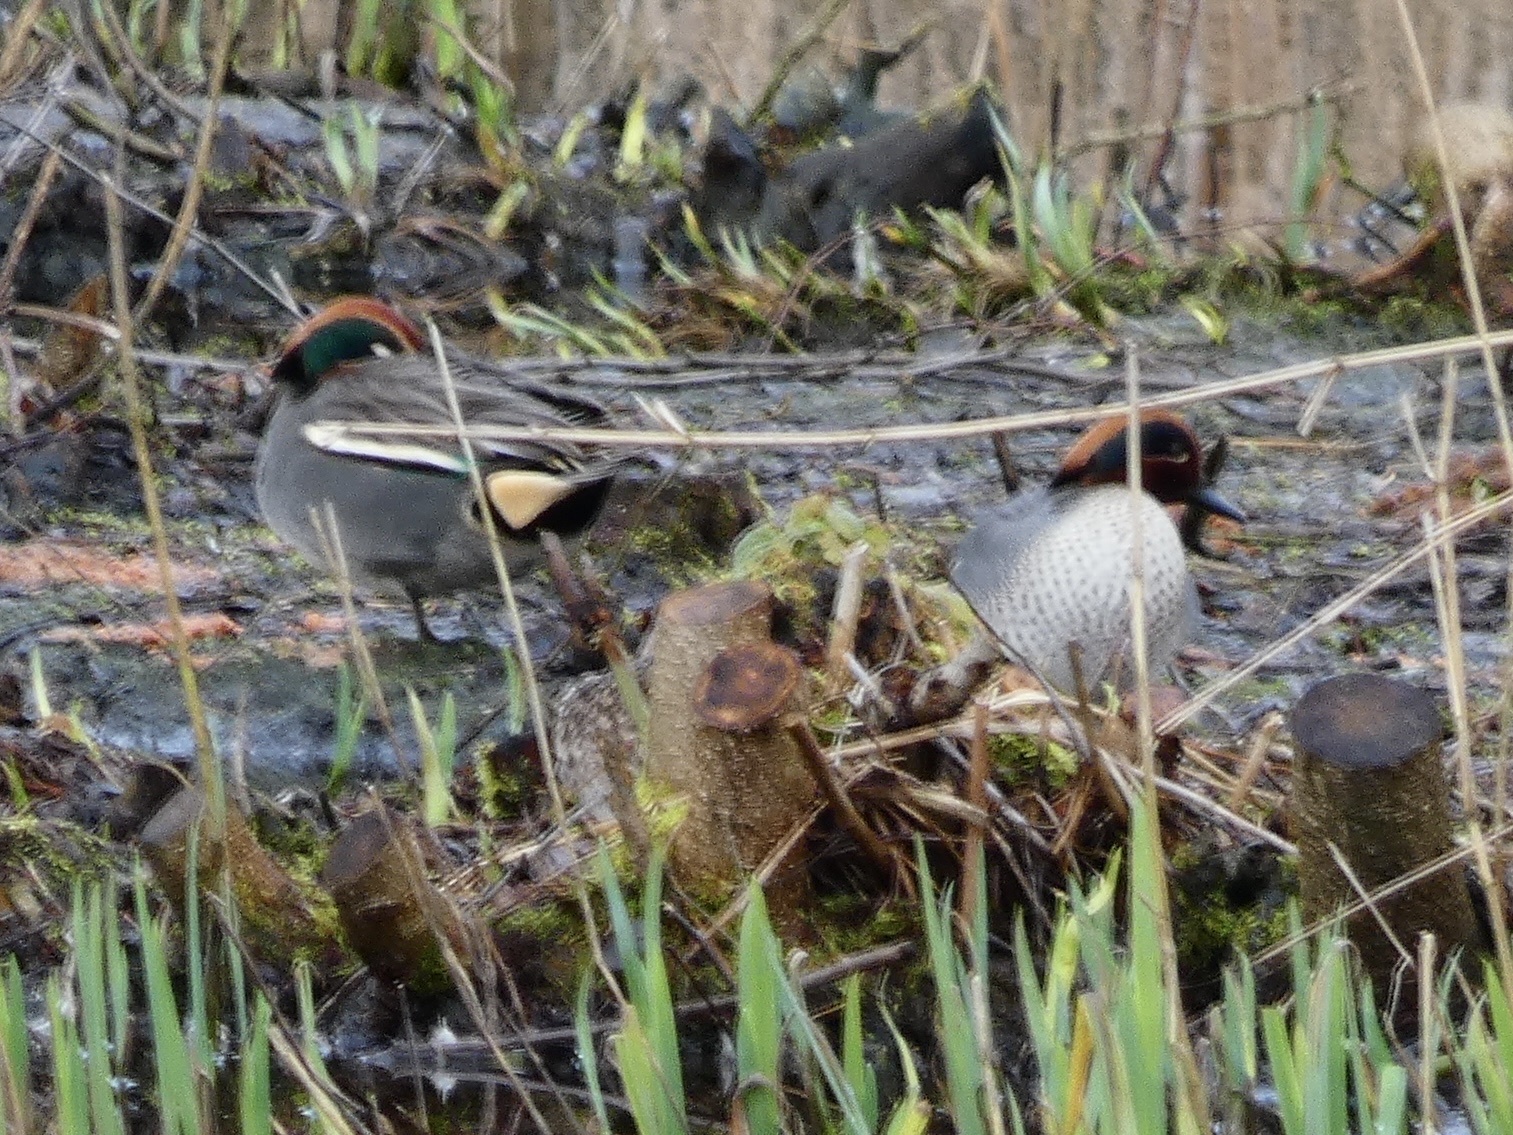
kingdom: Animalia
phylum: Chordata
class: Aves
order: Anseriformes
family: Anatidae
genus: Anas
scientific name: Anas crecca
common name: Eurasian teal
